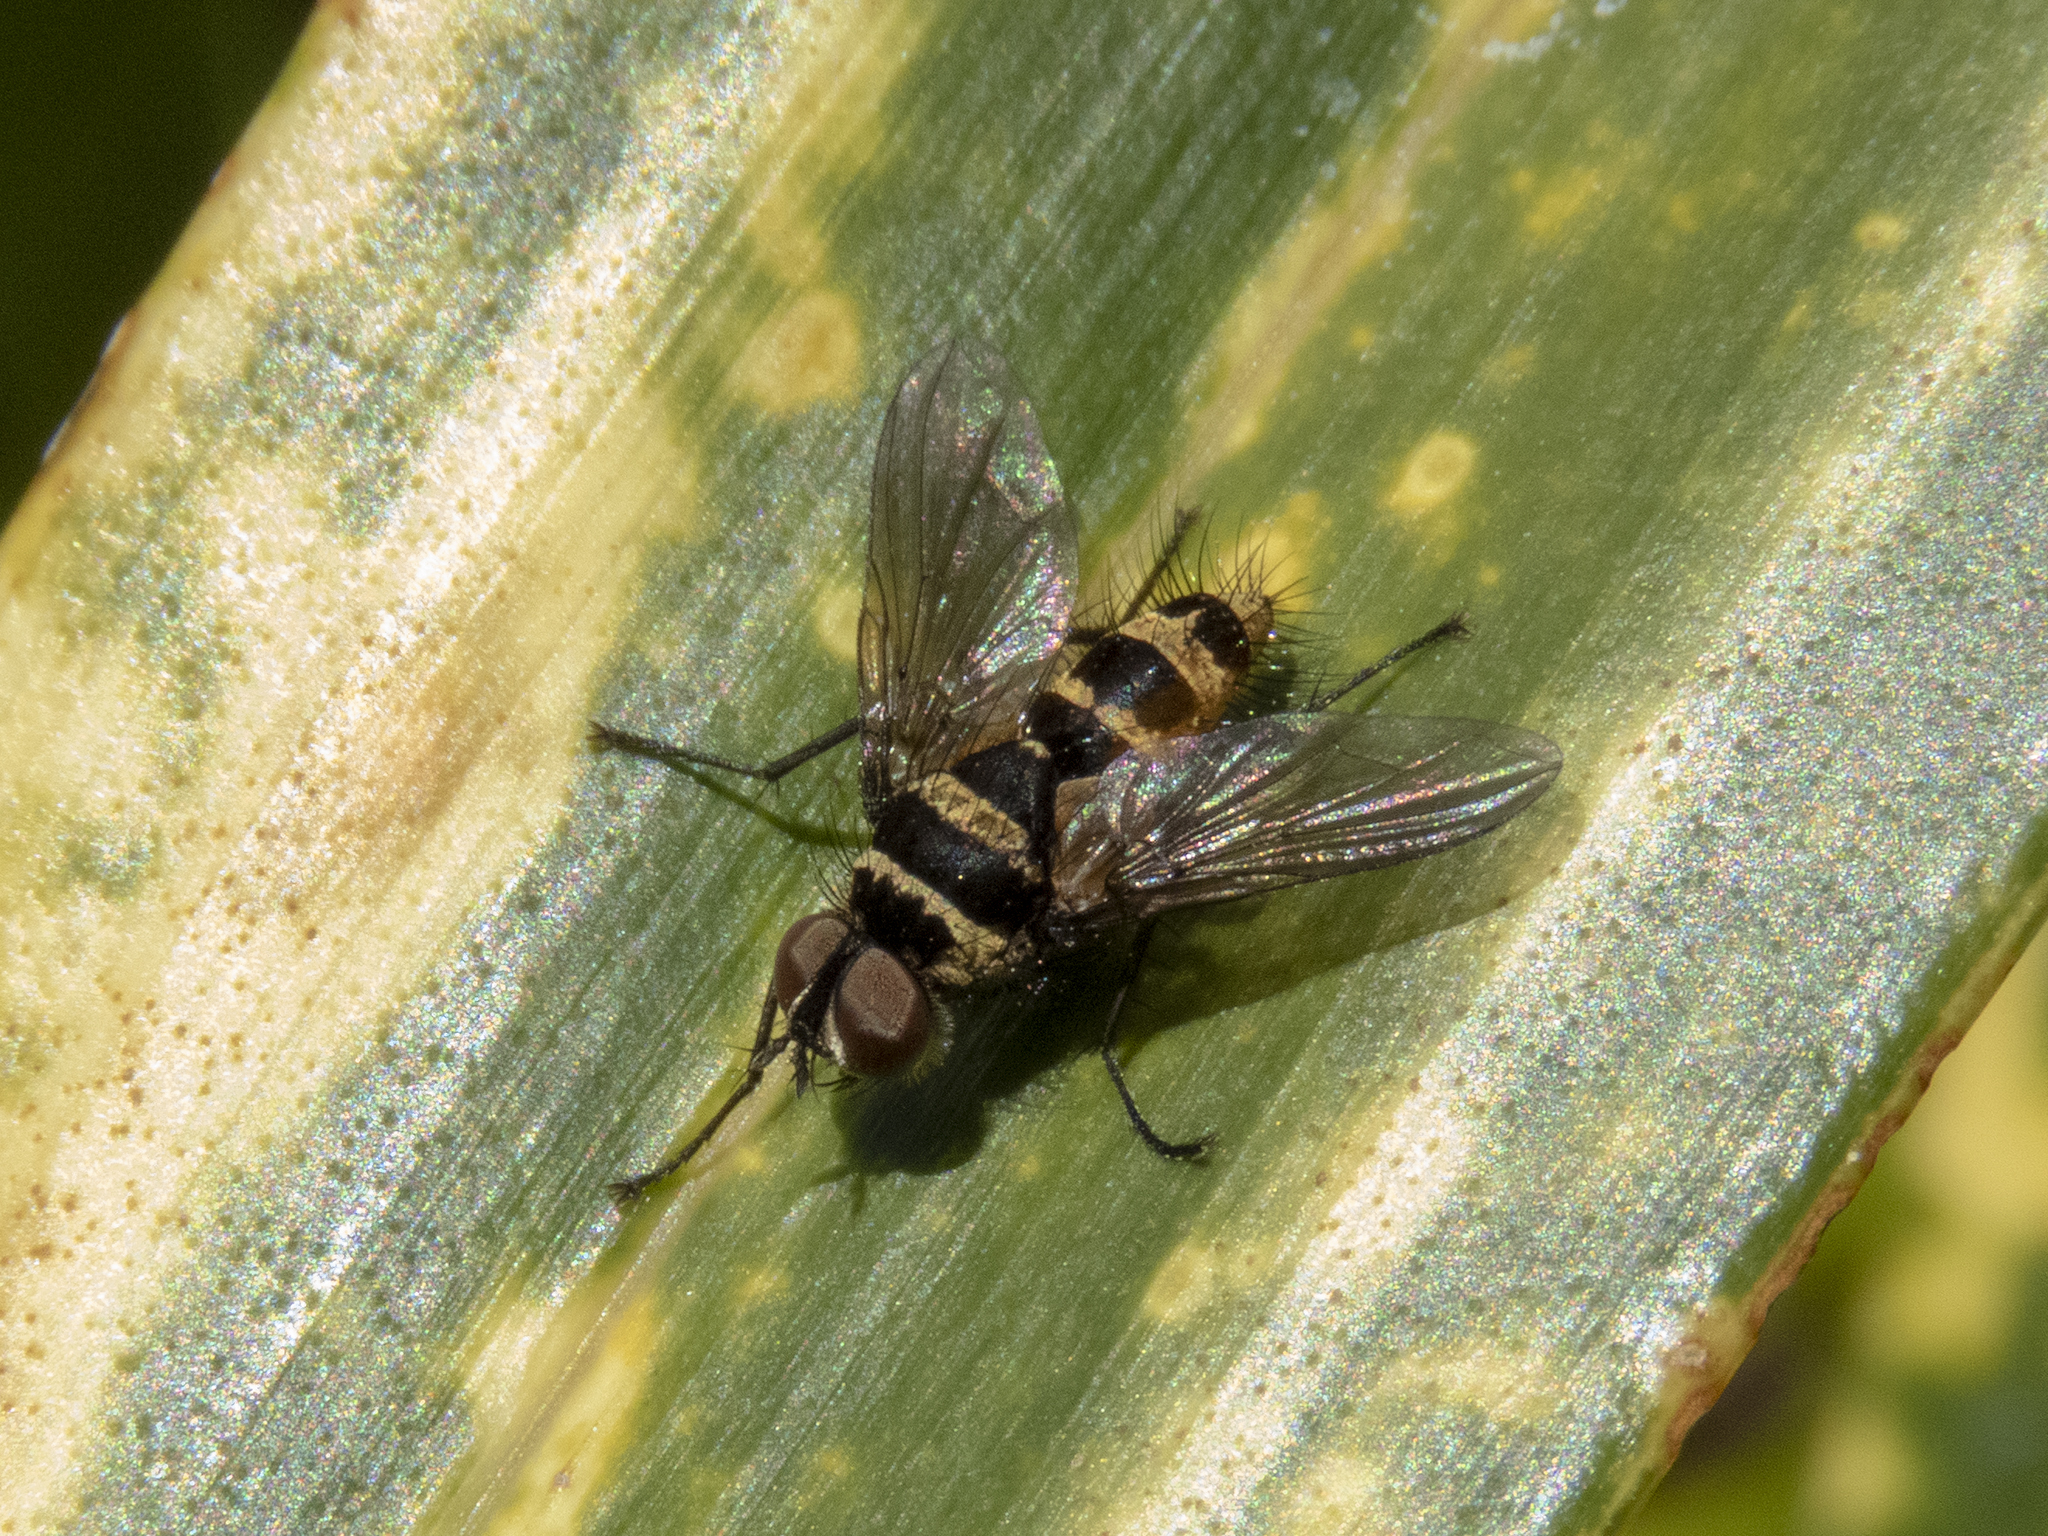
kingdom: Animalia
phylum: Arthropoda
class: Insecta
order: Diptera
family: Tachinidae
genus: Trigonospila
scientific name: Trigonospila brevifacies
